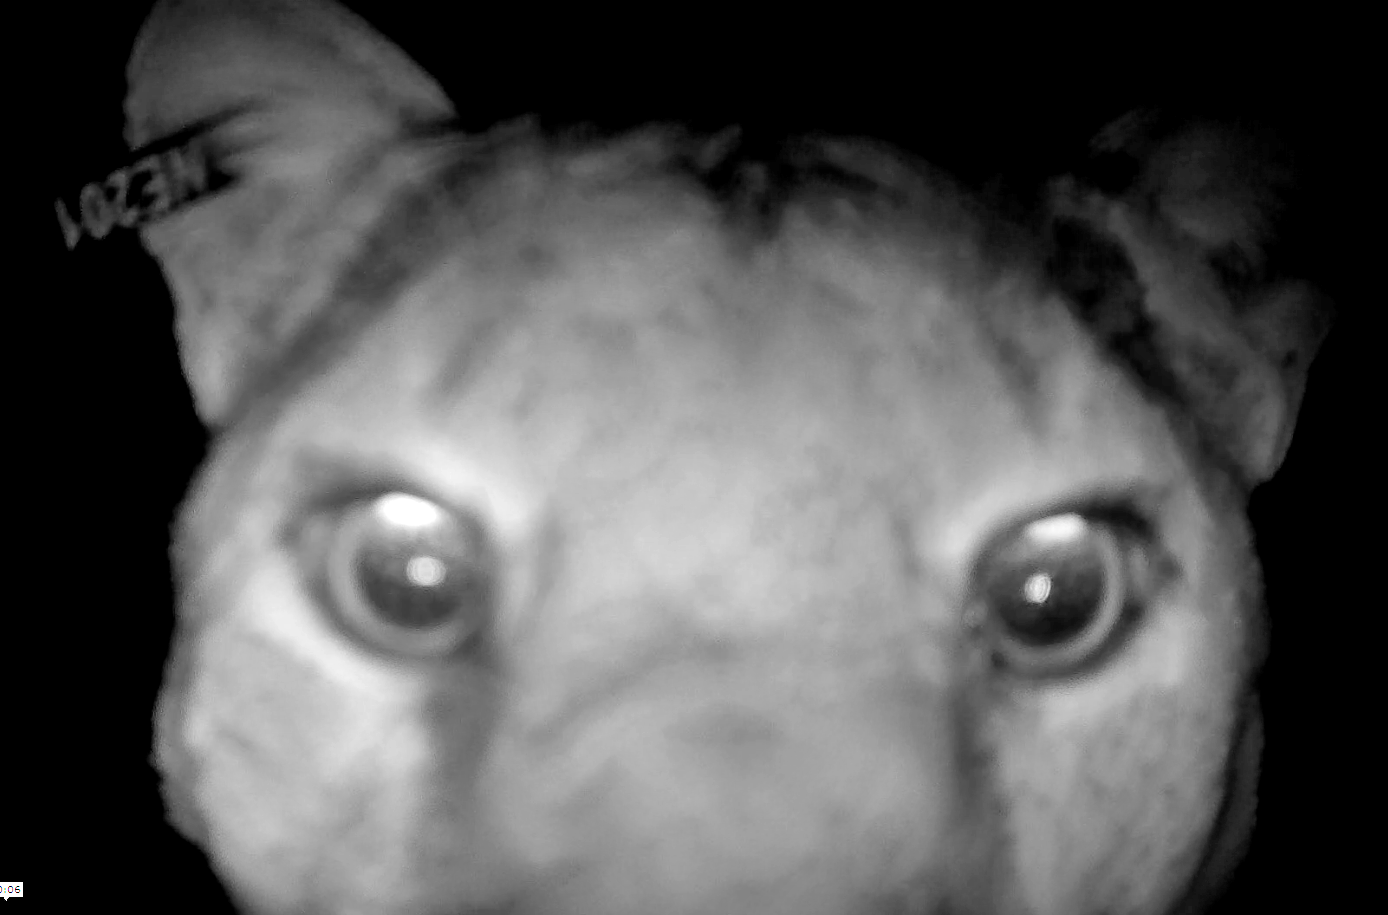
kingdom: Animalia
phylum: Chordata
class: Mammalia
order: Carnivora
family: Felidae
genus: Puma
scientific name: Puma concolor
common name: Puma
